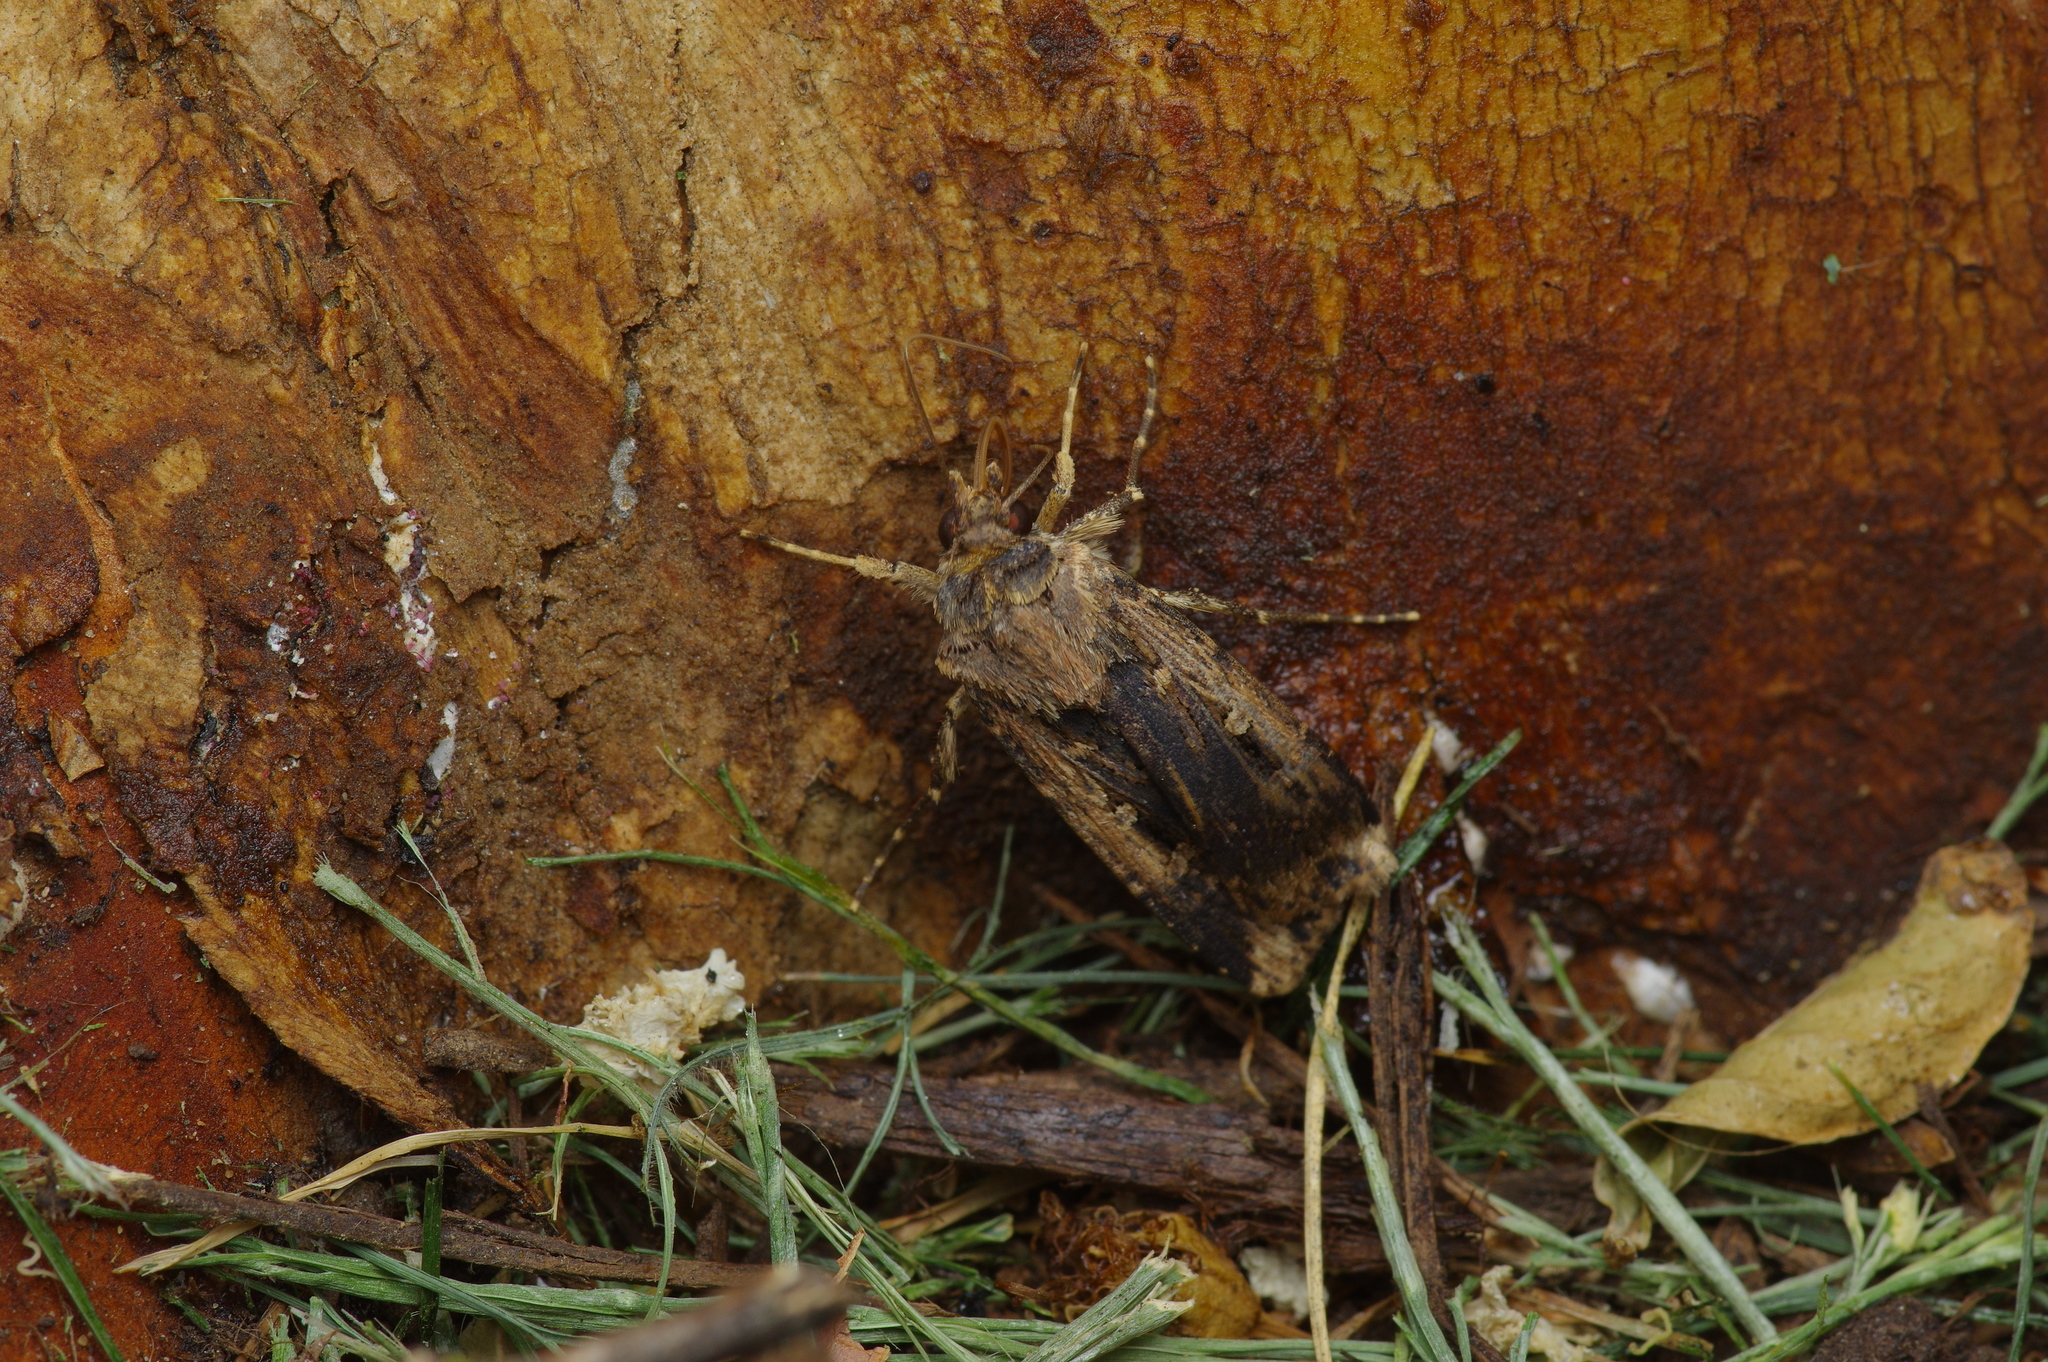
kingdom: Animalia
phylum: Arthropoda
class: Insecta
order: Lepidoptera
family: Noctuidae
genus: Feltia
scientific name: Feltia subterranea
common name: Granulate cutworm
